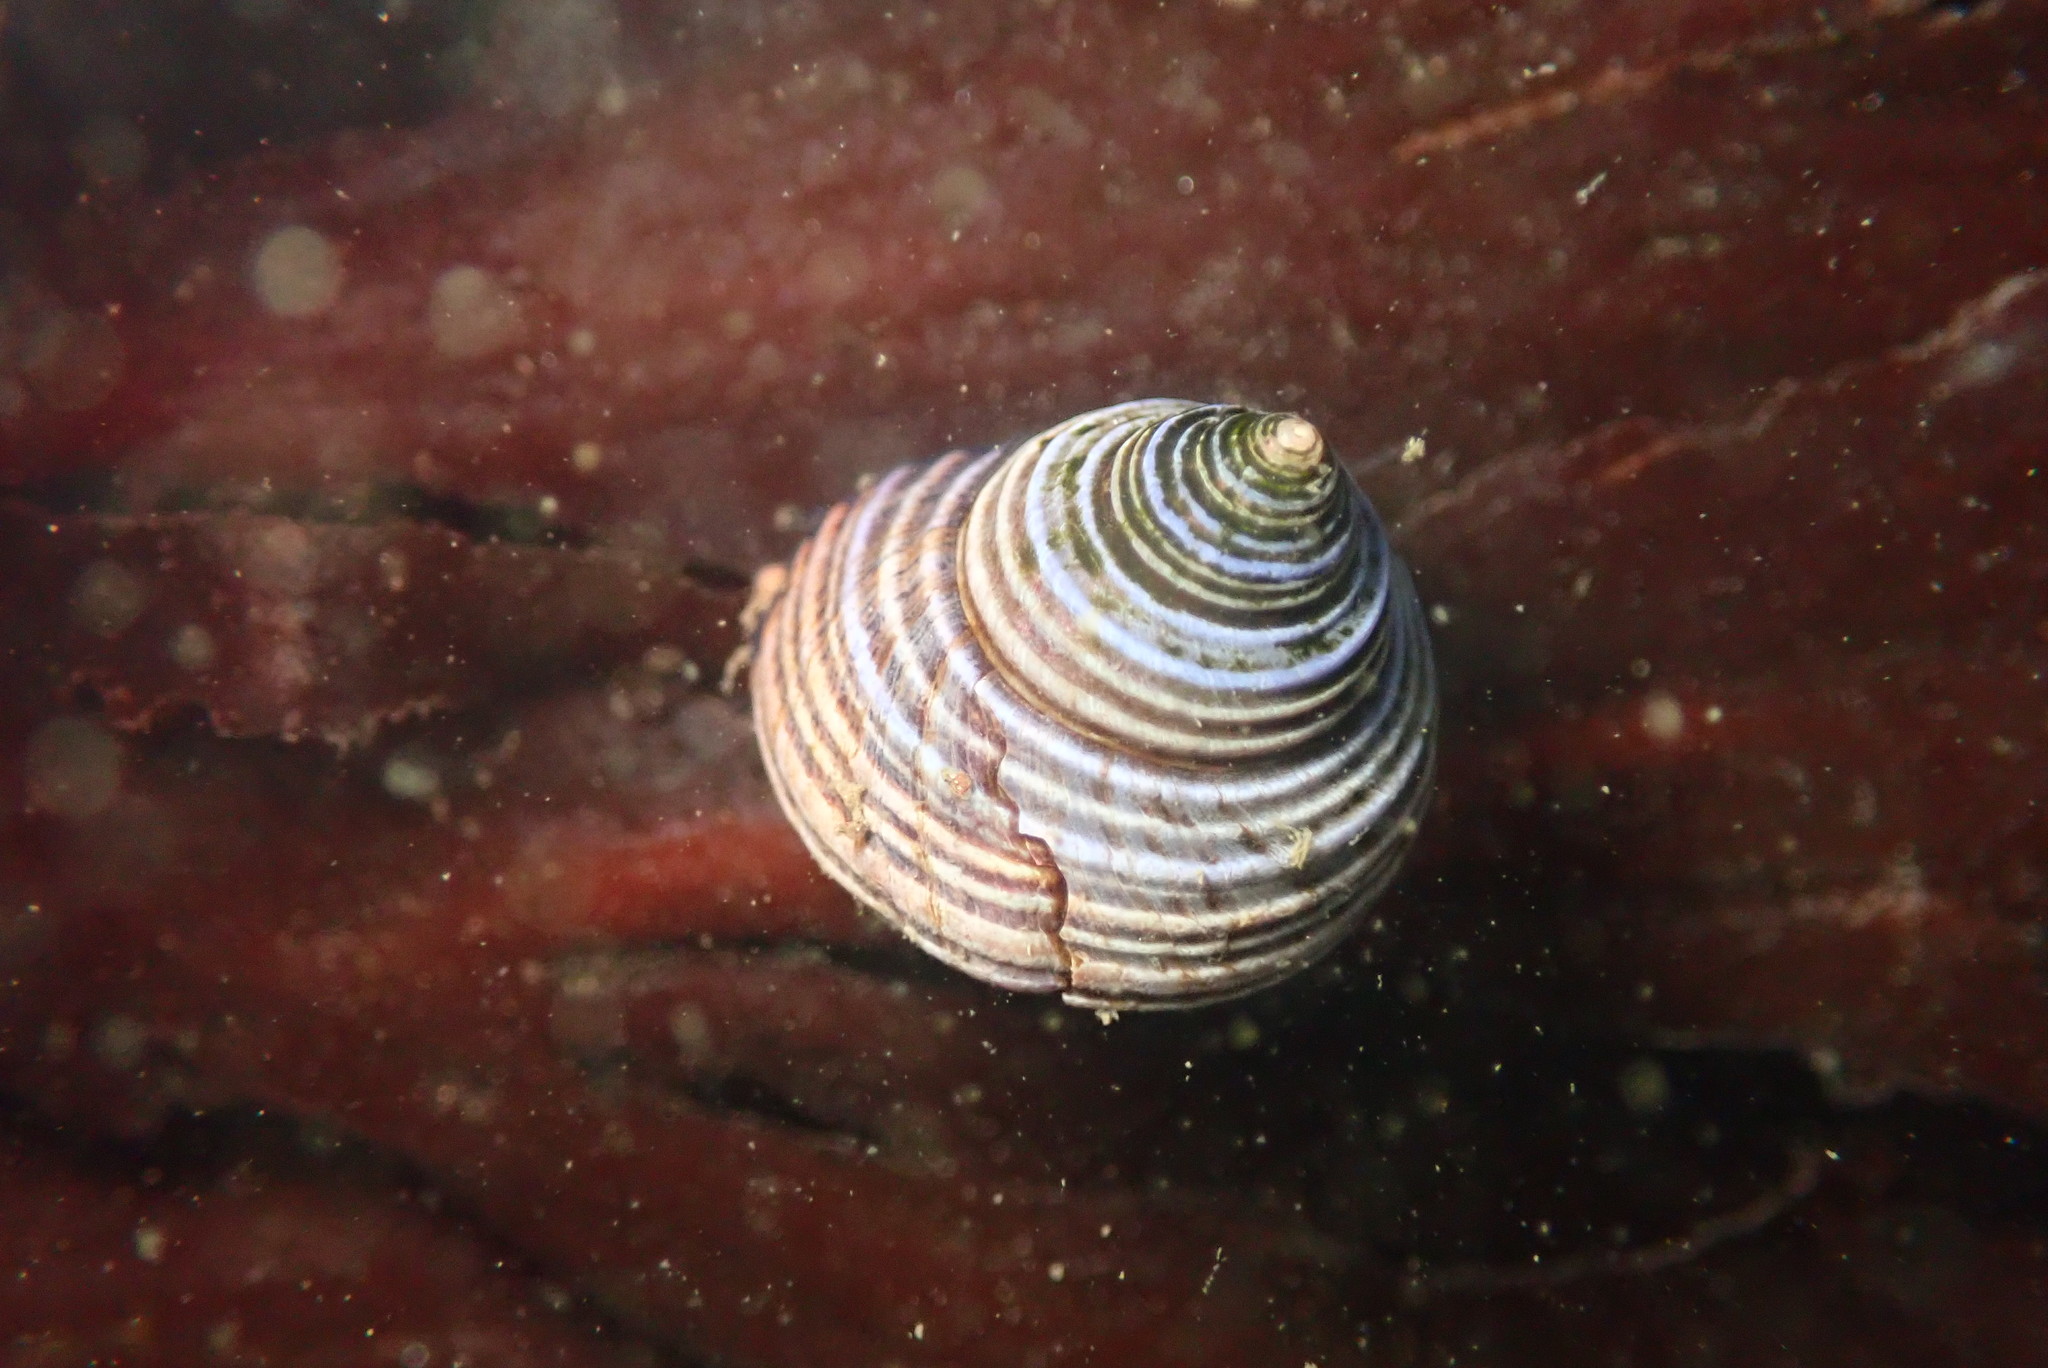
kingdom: Animalia
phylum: Mollusca
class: Gastropoda
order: Trochida
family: Calliostomatidae
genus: Calliostoma
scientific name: Calliostoma ligatum
